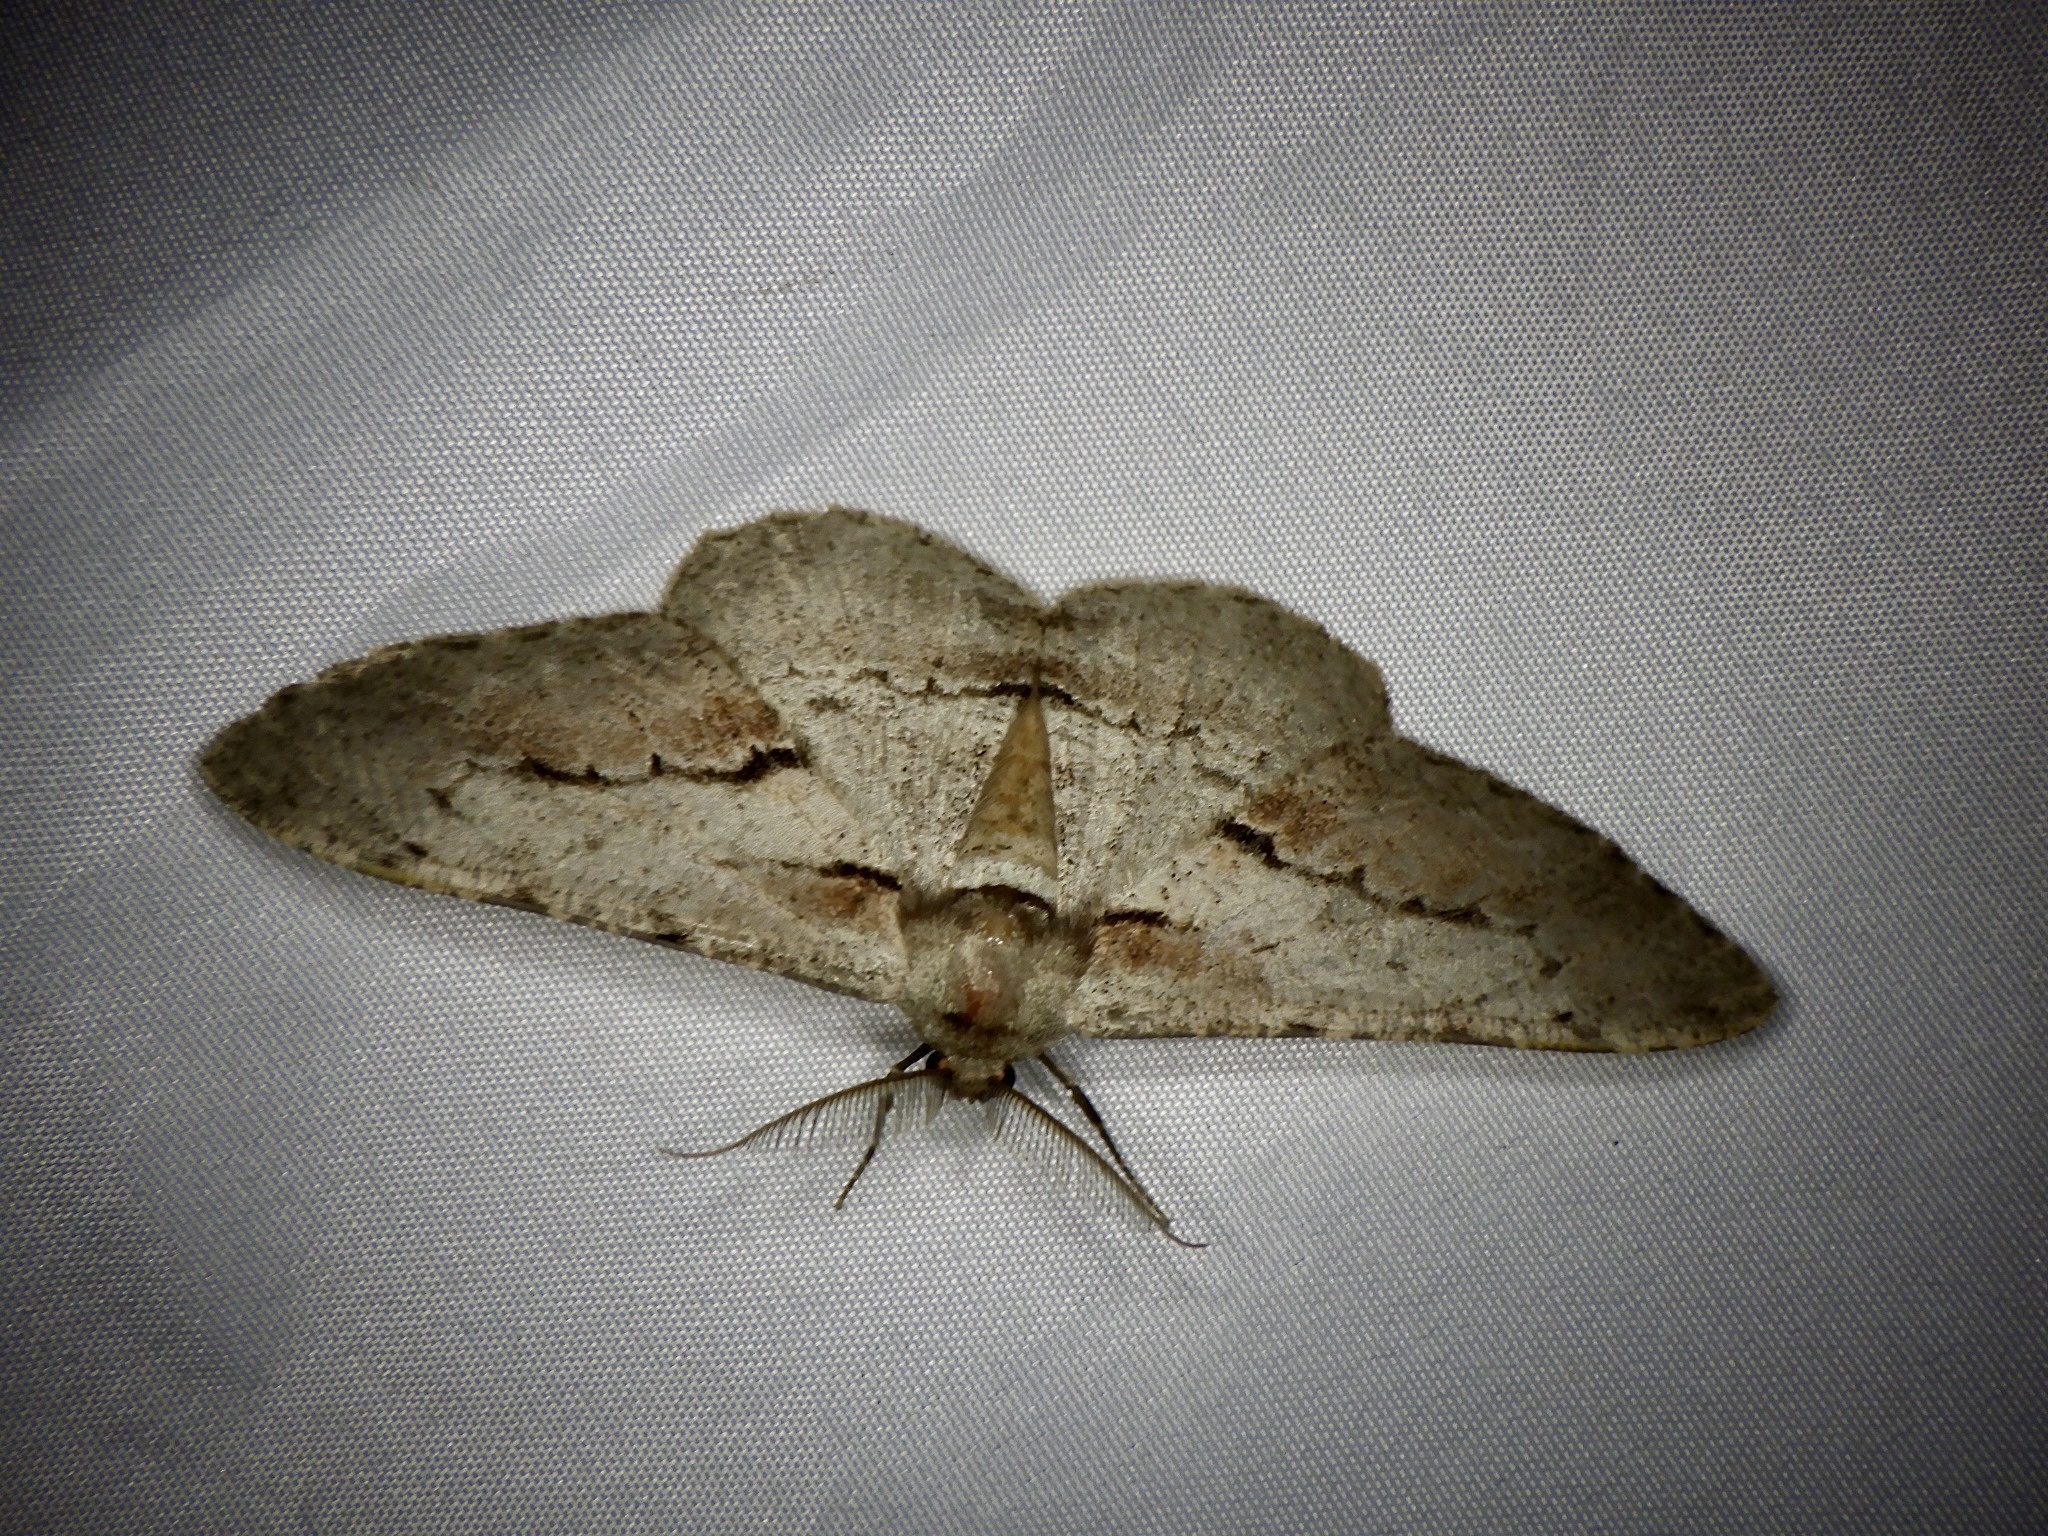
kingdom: Animalia
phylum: Arthropoda
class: Insecta
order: Lepidoptera
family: Geometridae
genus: Phthonosema
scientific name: Phthonosema tendinosaria
